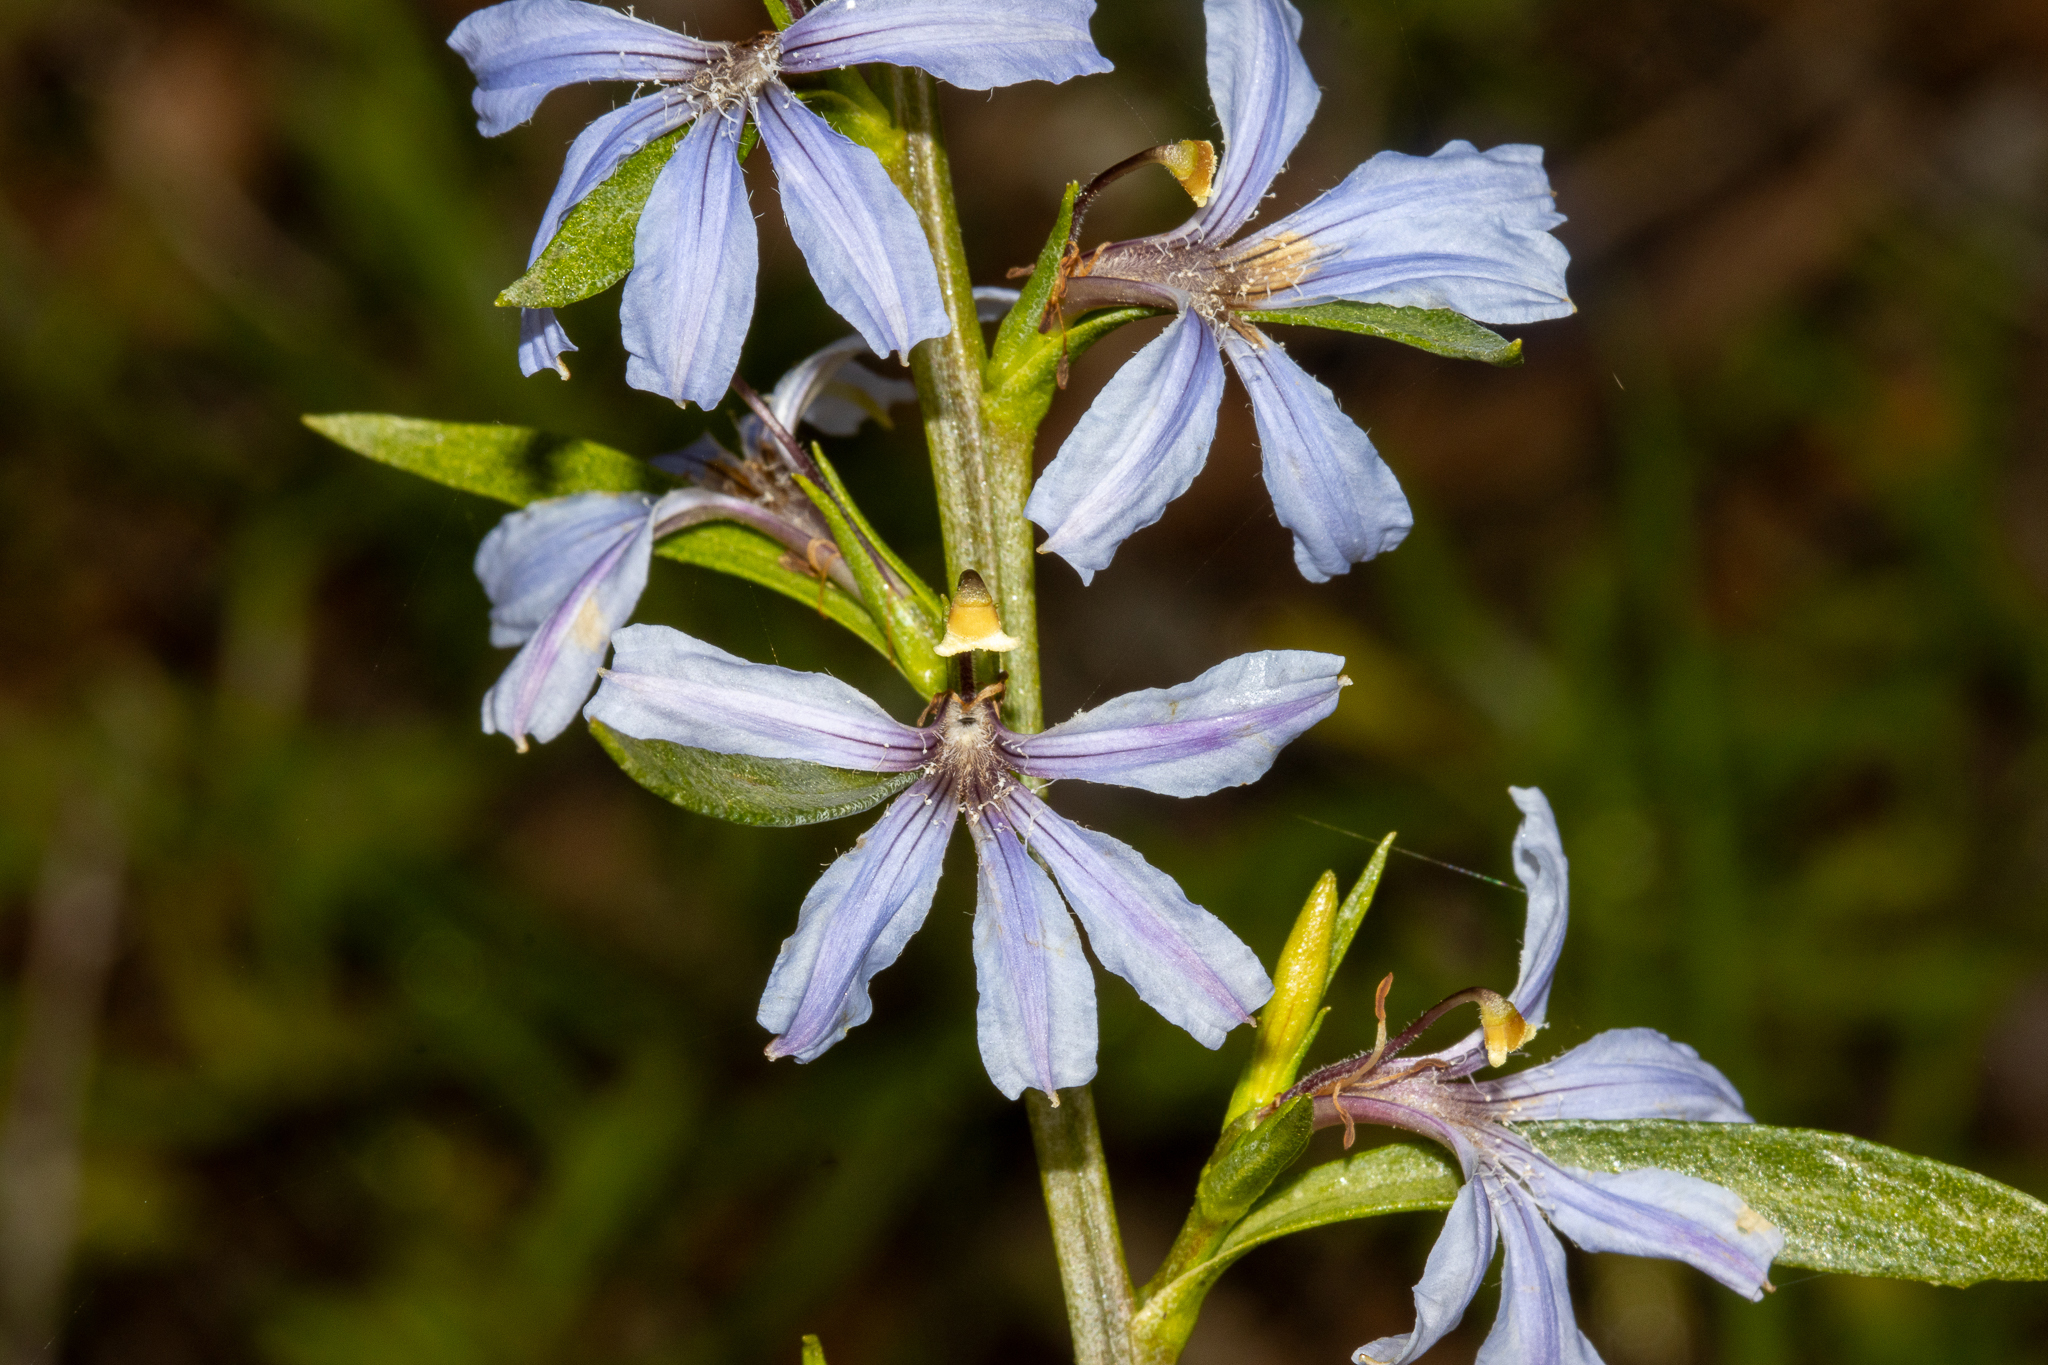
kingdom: Plantae
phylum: Tracheophyta
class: Magnoliopsida
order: Asterales
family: Goodeniaceae
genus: Scaevola
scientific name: Scaevola angustata
